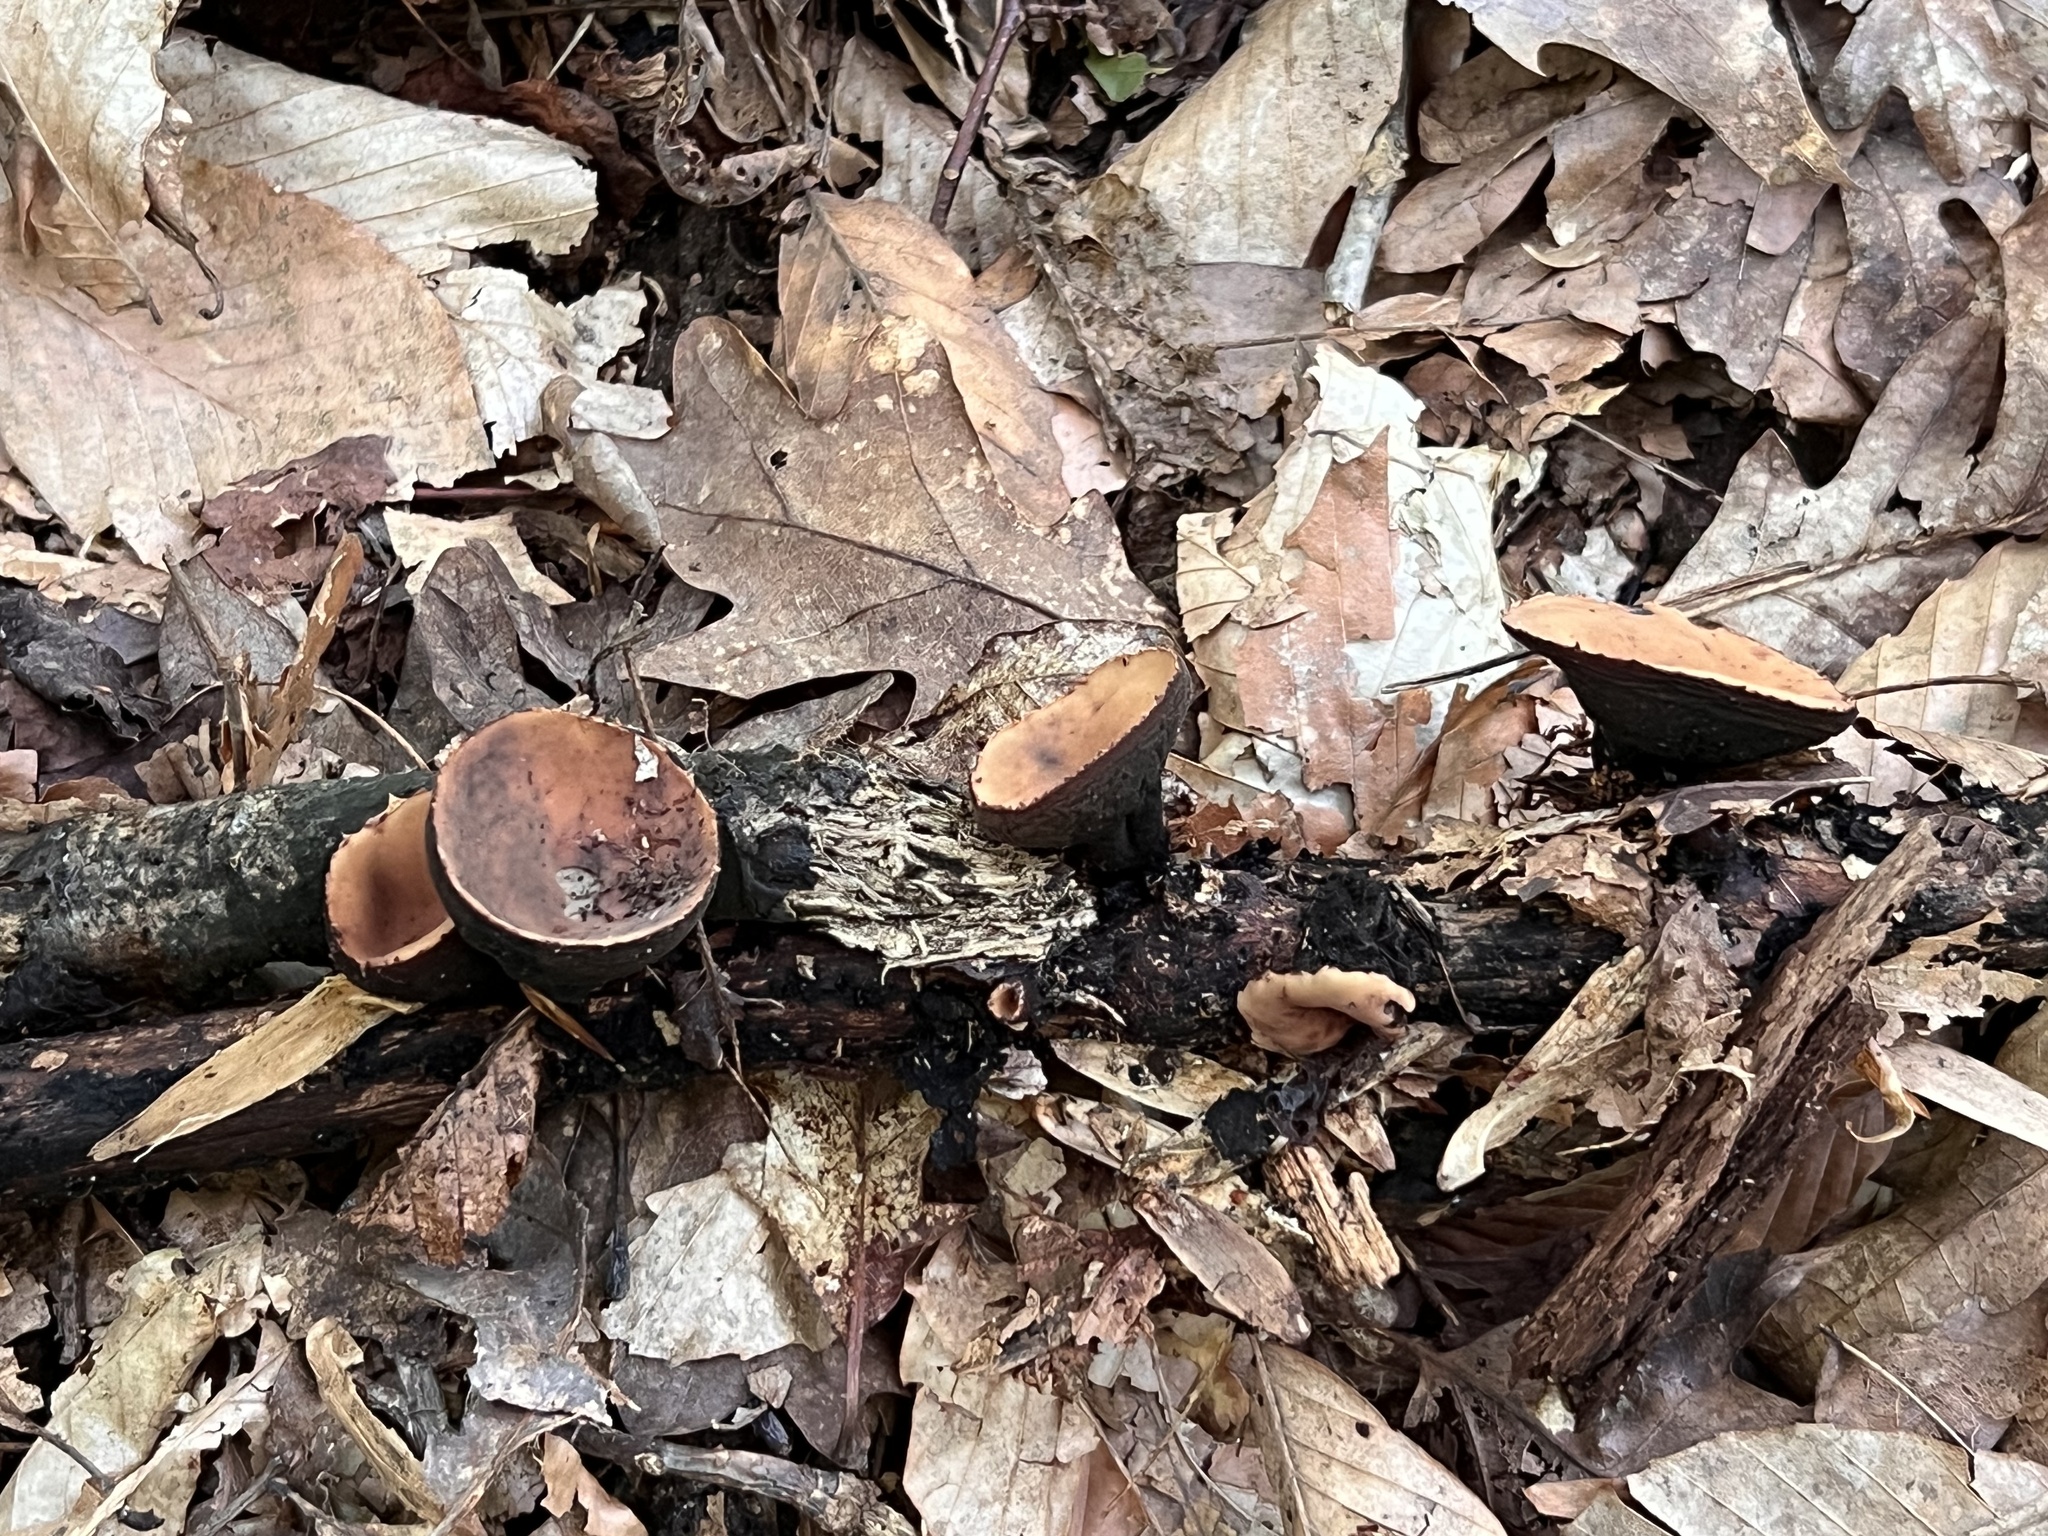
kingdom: Fungi
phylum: Ascomycota
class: Pezizomycetes
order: Pezizales
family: Sarcosomataceae
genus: Galiella
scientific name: Galiella rufa
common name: Hairy rubber cup
